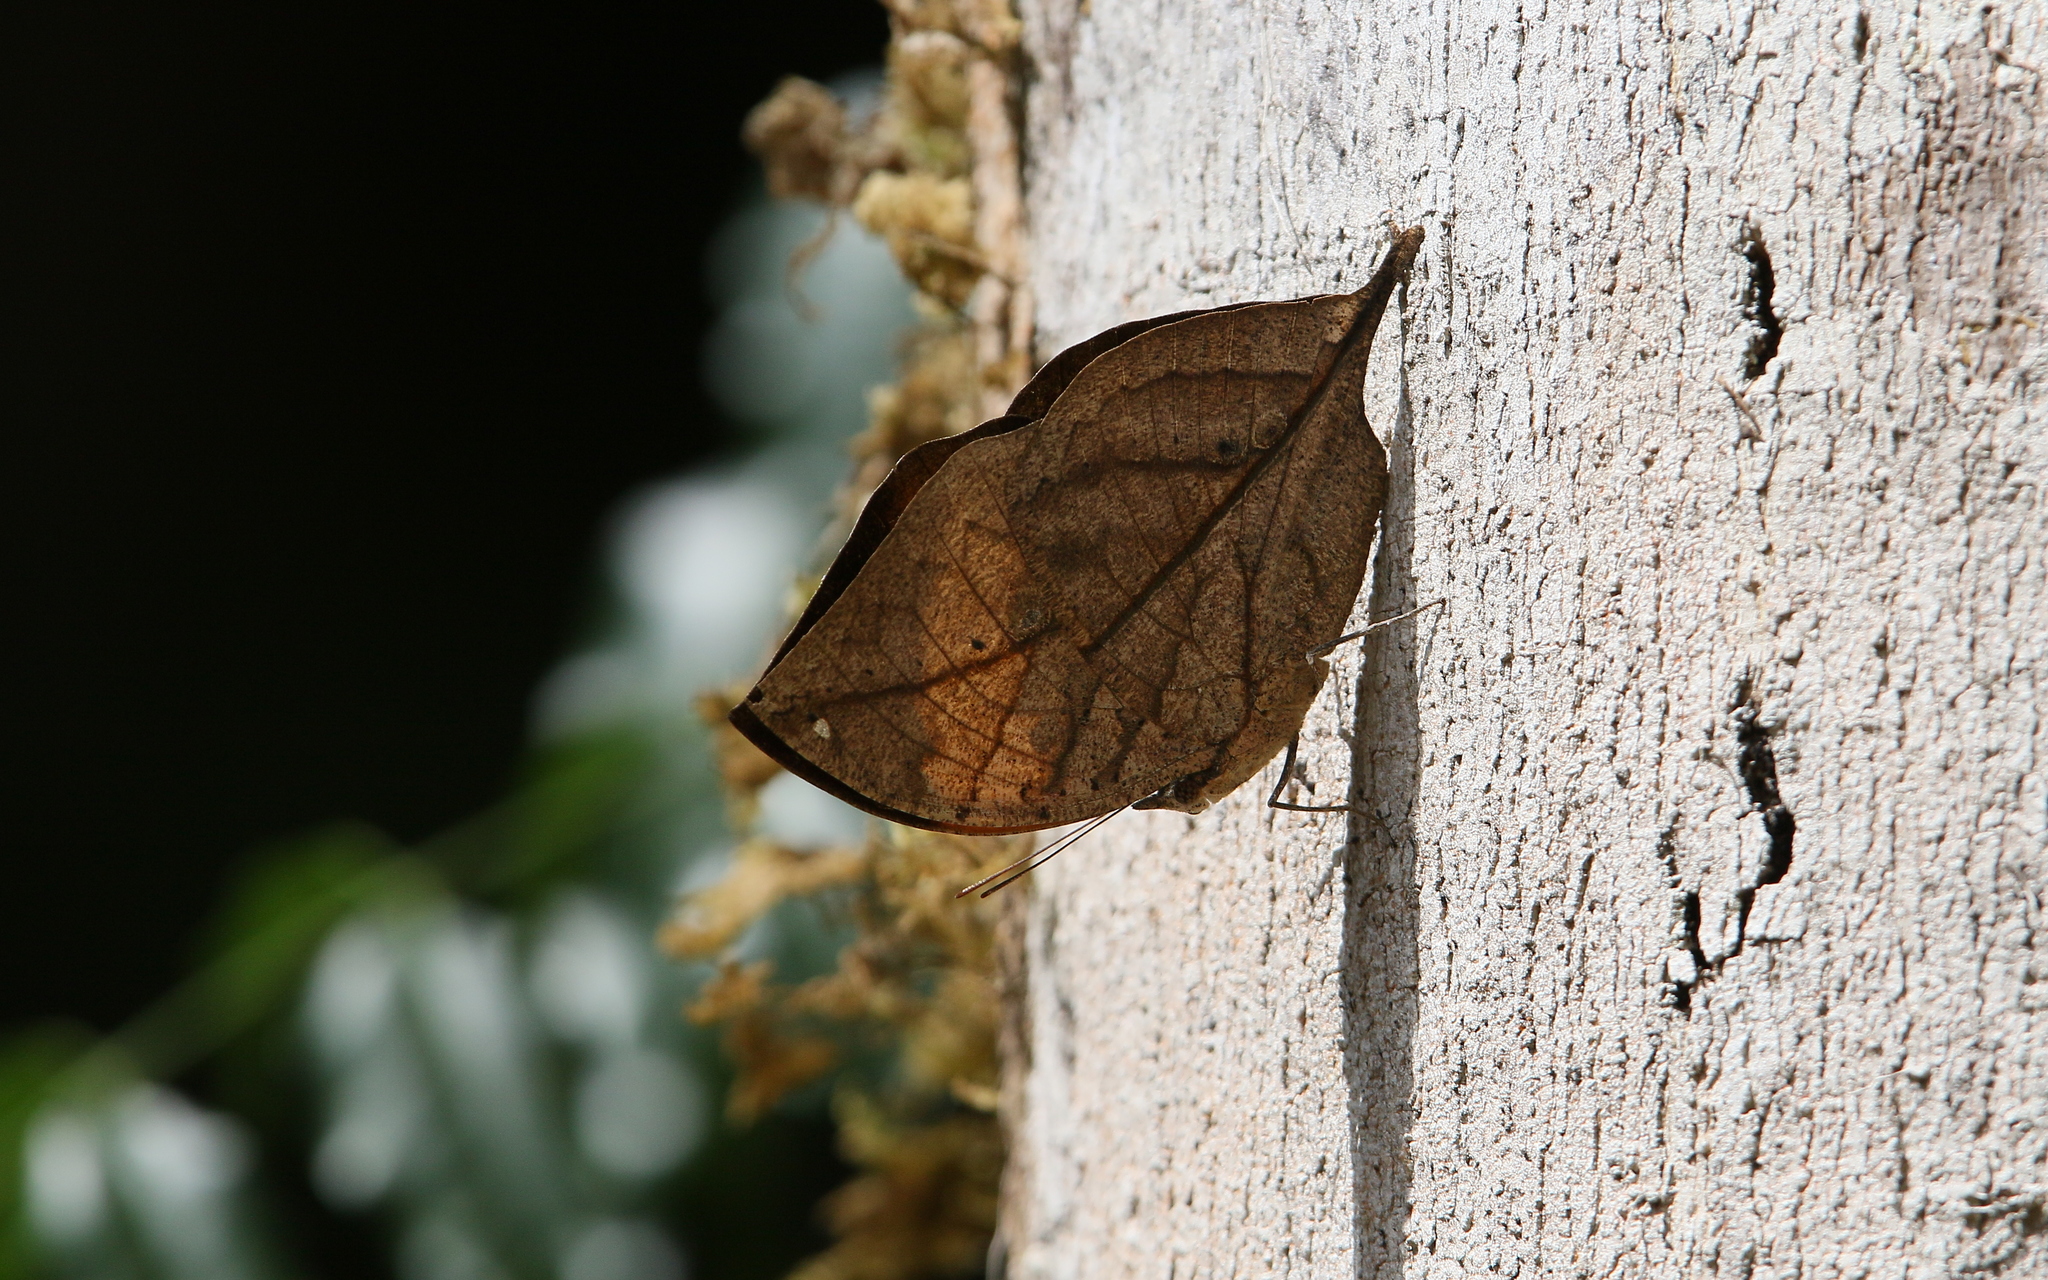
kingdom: Animalia
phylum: Arthropoda
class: Insecta
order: Lepidoptera
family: Nymphalidae
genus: Kallima
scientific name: Kallima inachus
